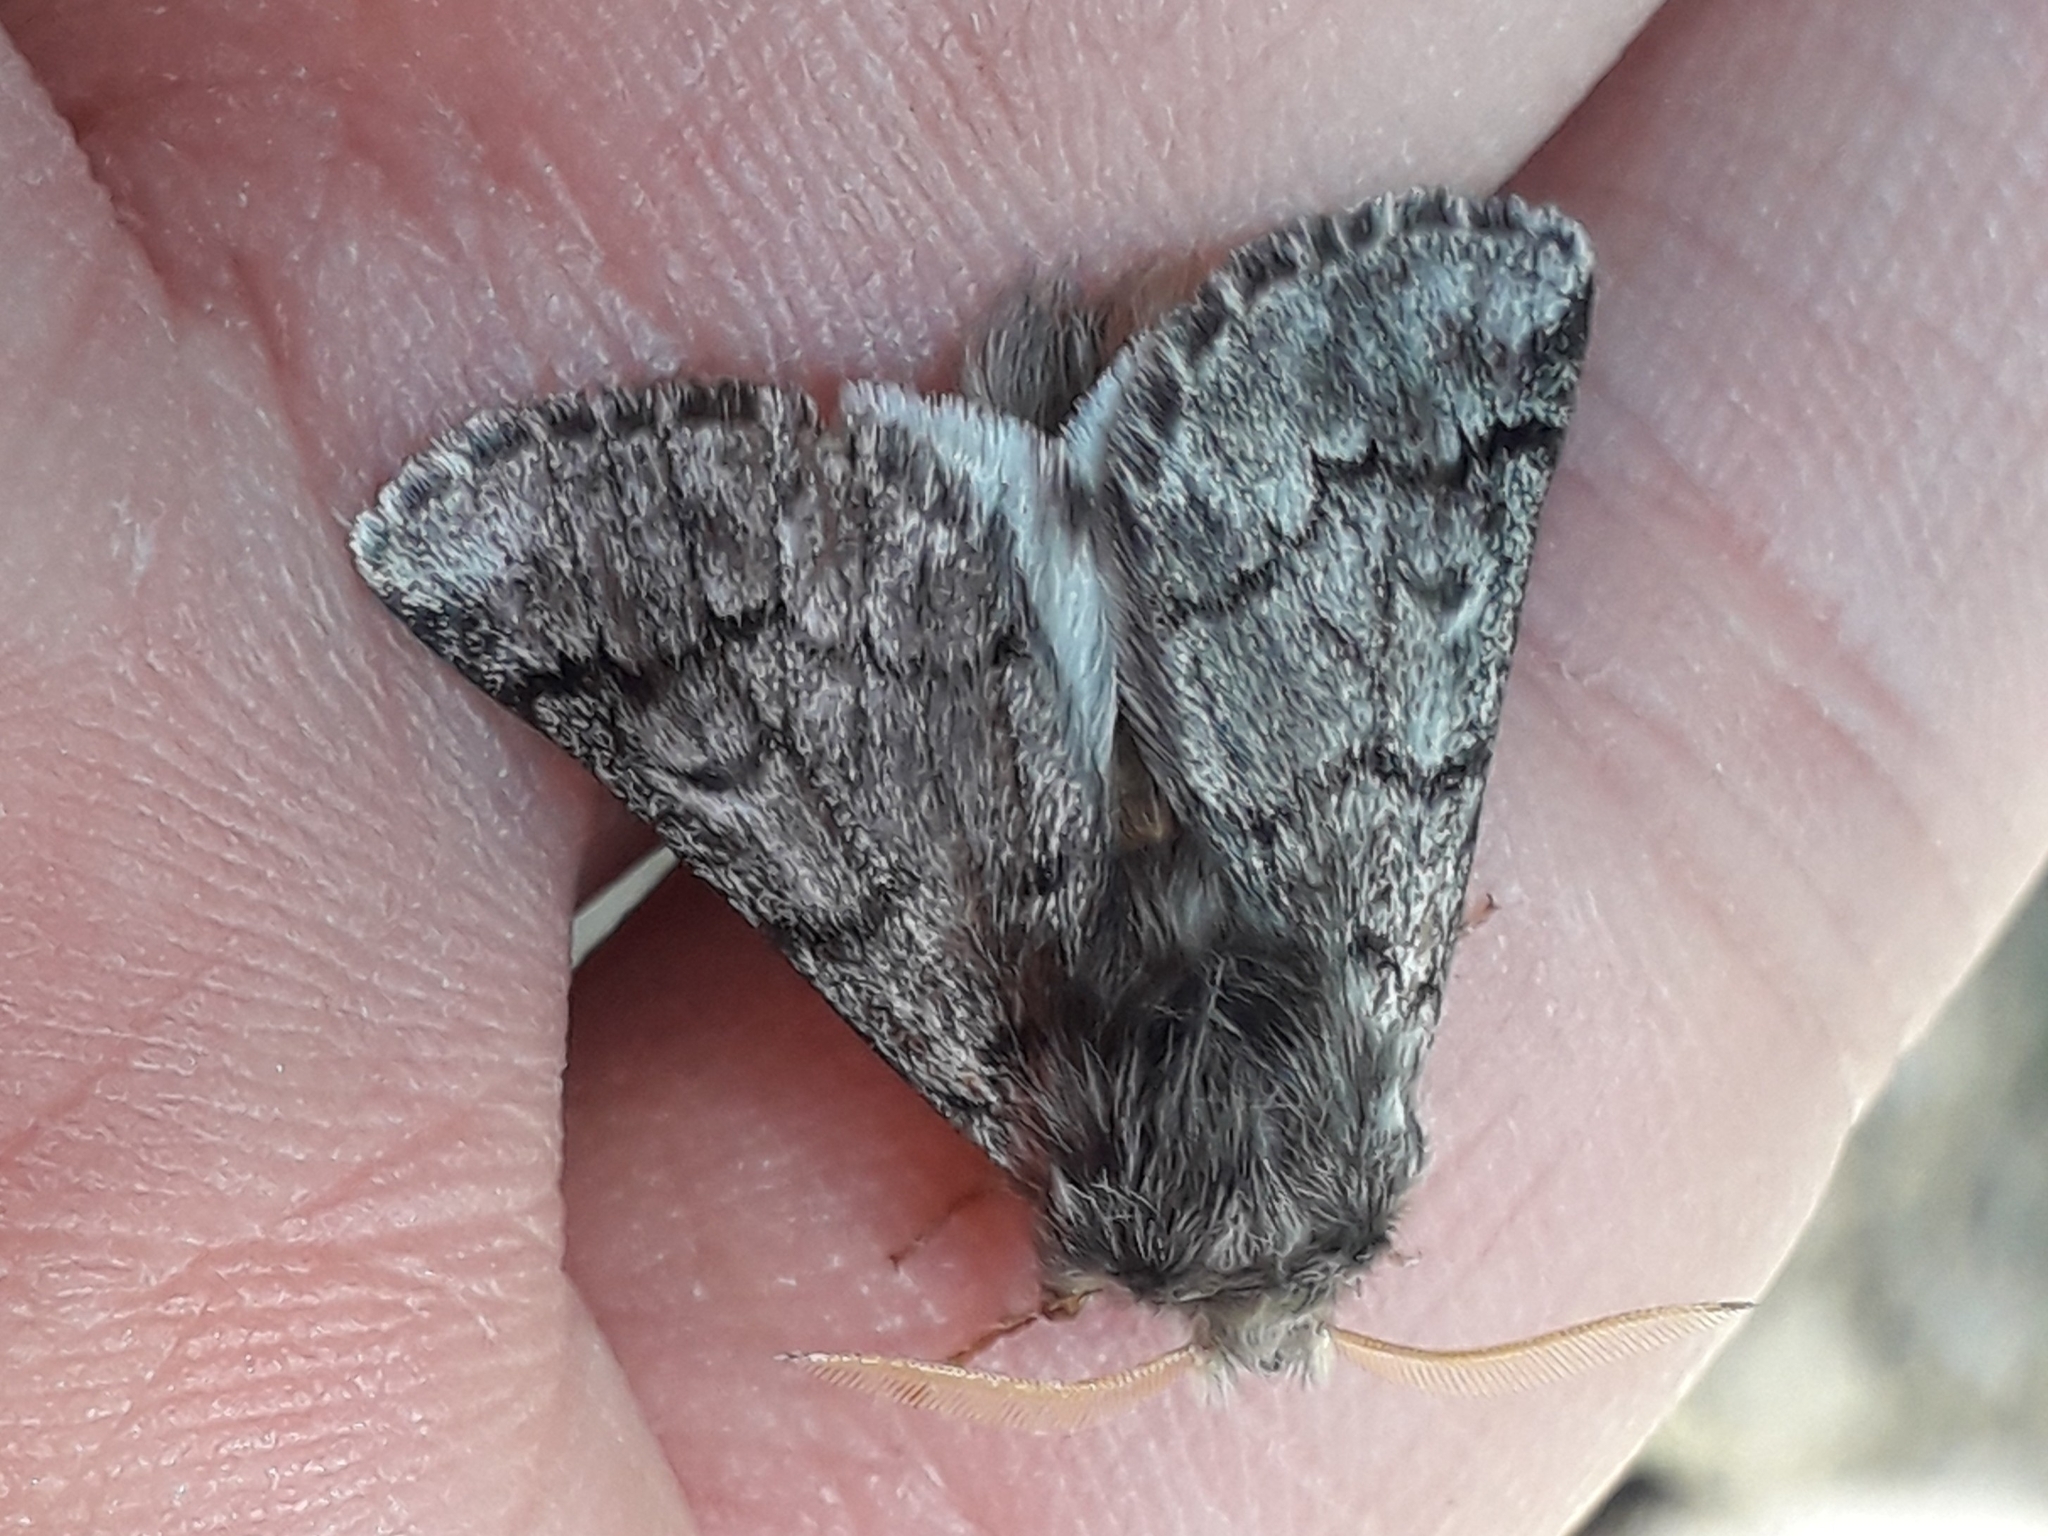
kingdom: Animalia
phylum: Arthropoda
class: Insecta
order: Lepidoptera
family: Notodontidae
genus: Thaumetopoea
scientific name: Thaumetopoea pityocampa
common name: Pine processionary
